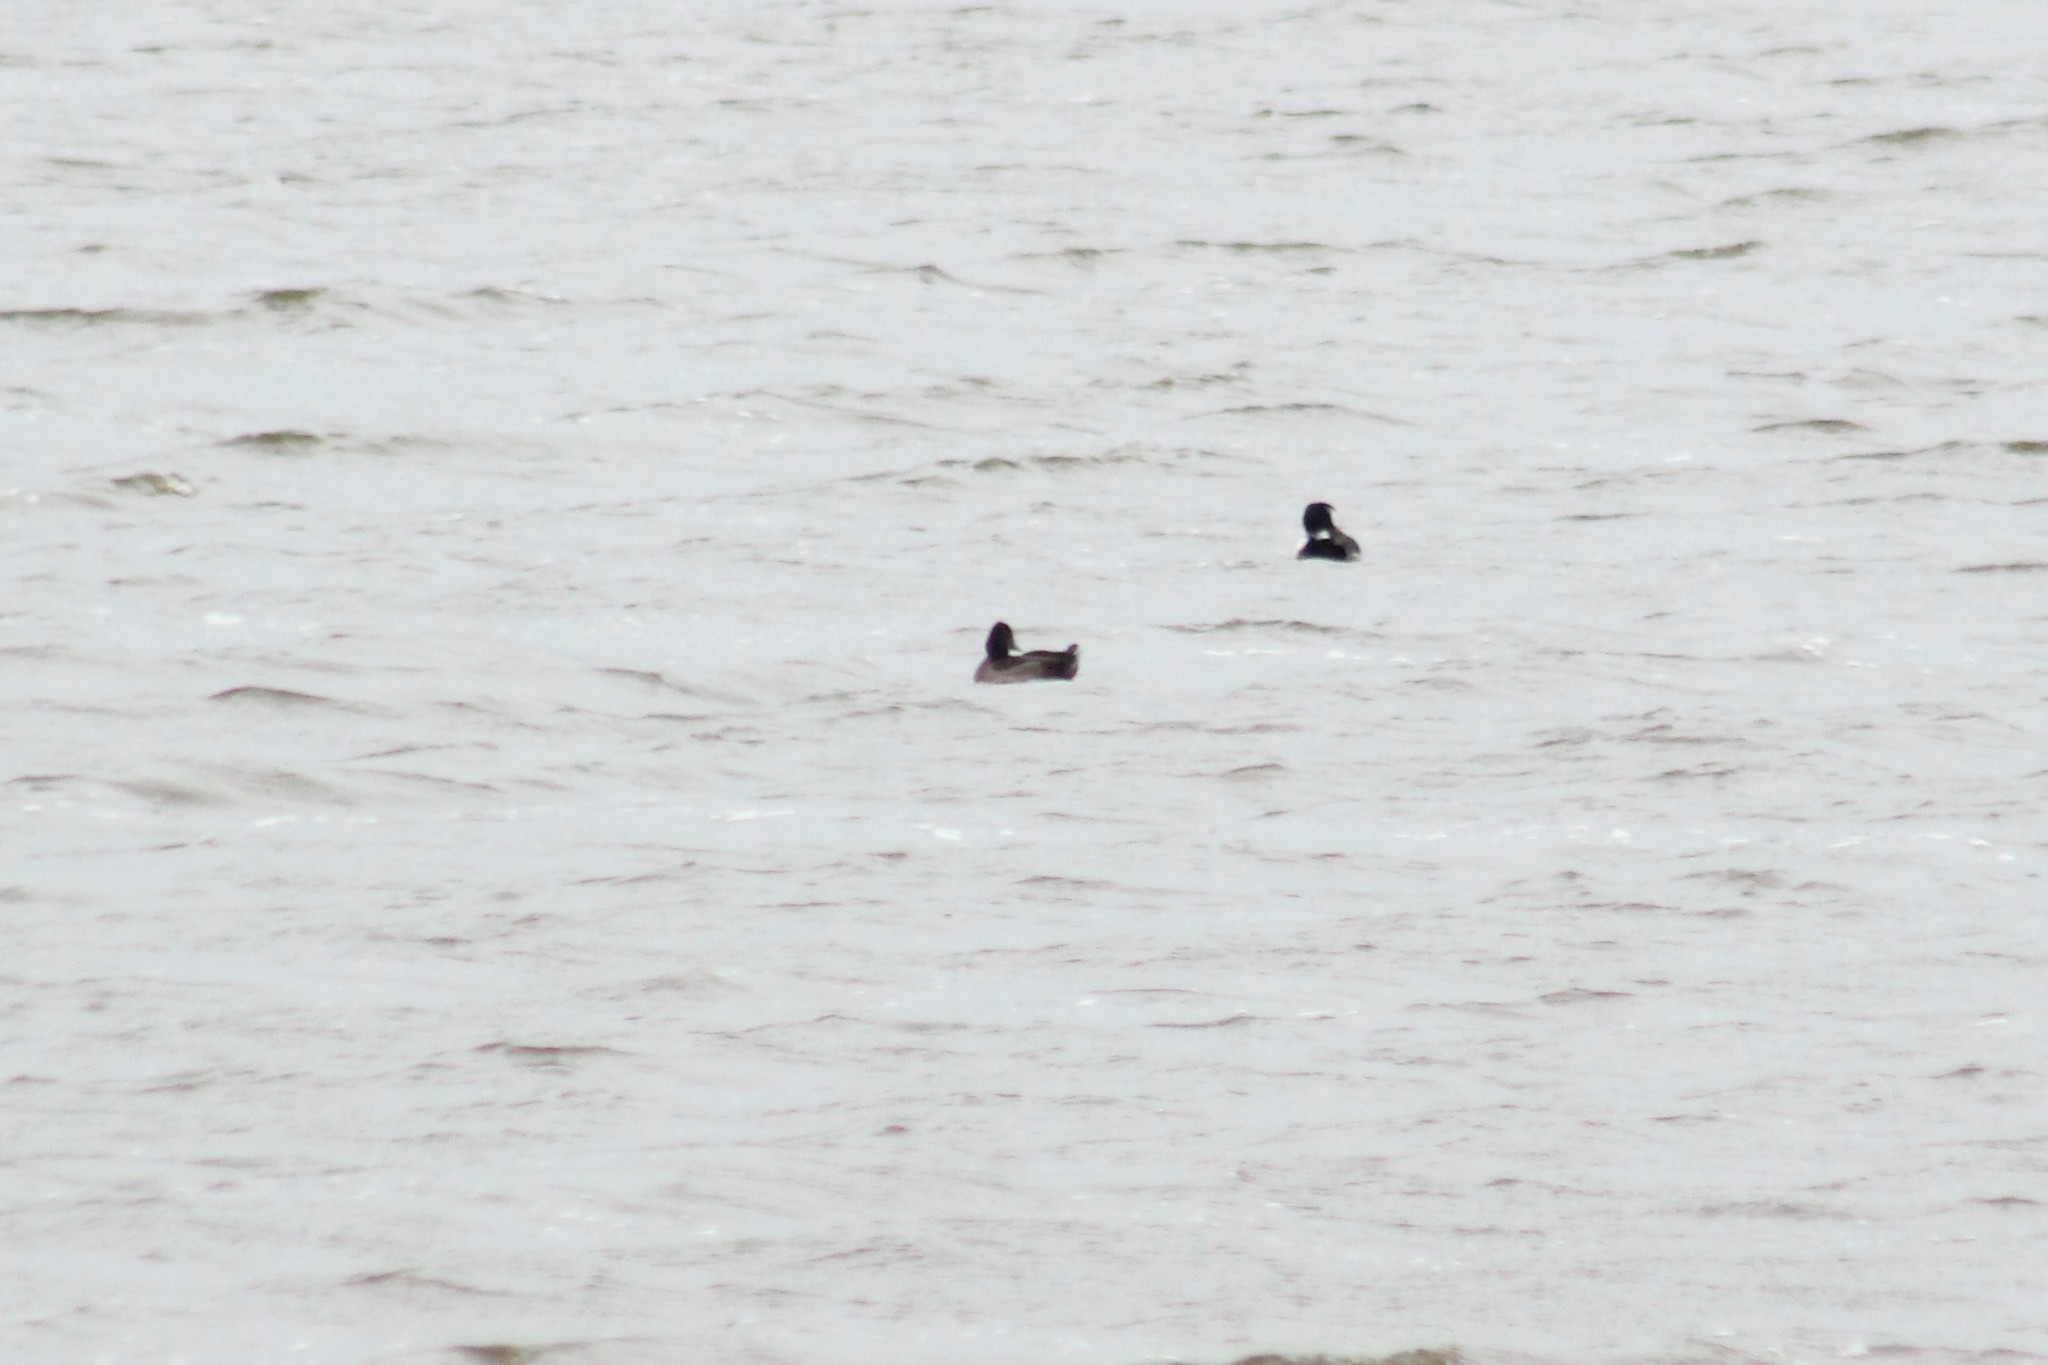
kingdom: Animalia
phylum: Chordata
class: Aves
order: Anseriformes
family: Anatidae
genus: Aythya
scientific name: Aythya fuligula
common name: Tufted duck
